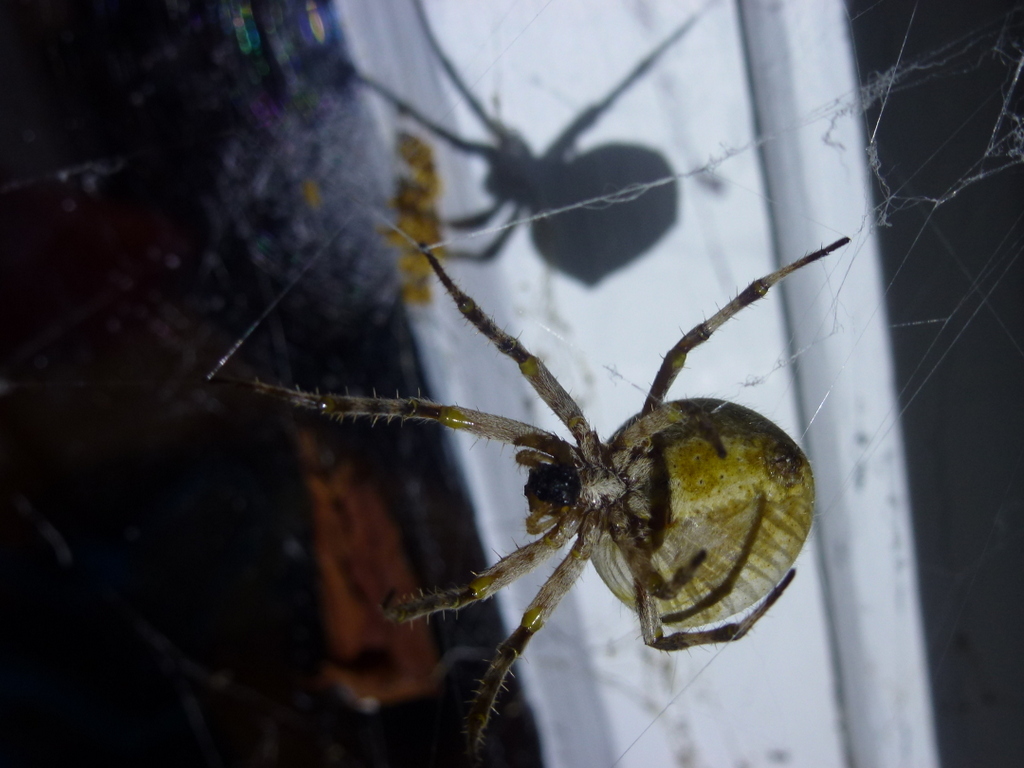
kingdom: Animalia
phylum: Arthropoda
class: Arachnida
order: Araneae
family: Araneidae
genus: Eriophora
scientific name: Eriophora pustulosa
